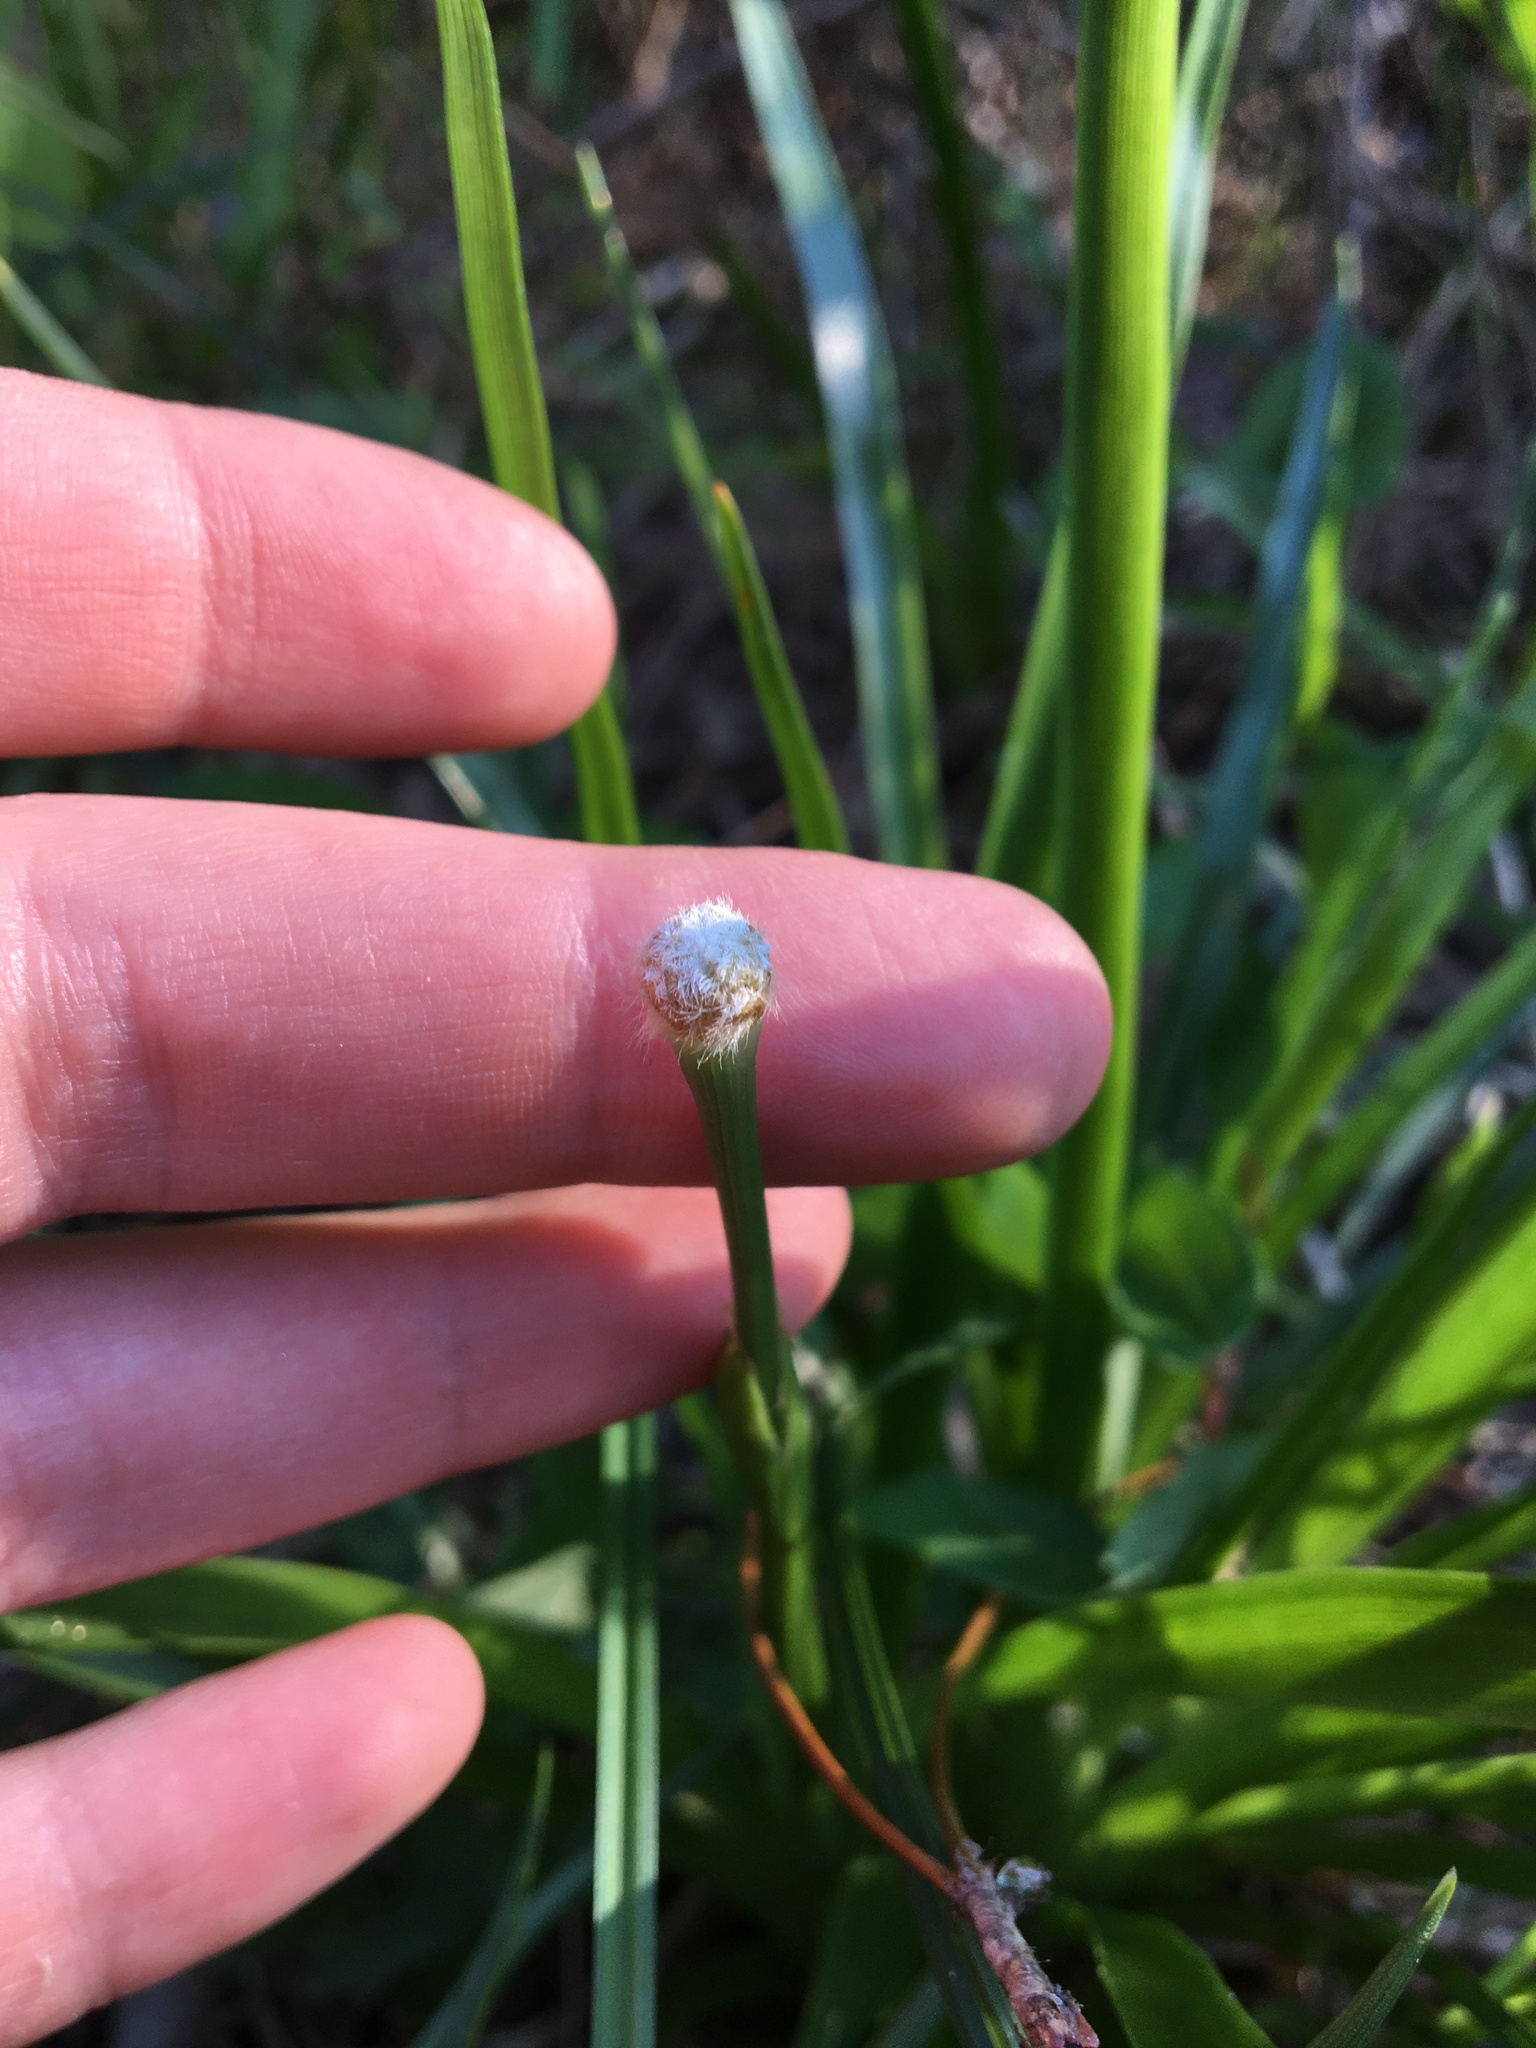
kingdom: Plantae
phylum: Tracheophyta
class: Liliopsida
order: Poales
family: Eriocaulaceae
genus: Eriocaulon
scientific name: Eriocaulon decangulare
